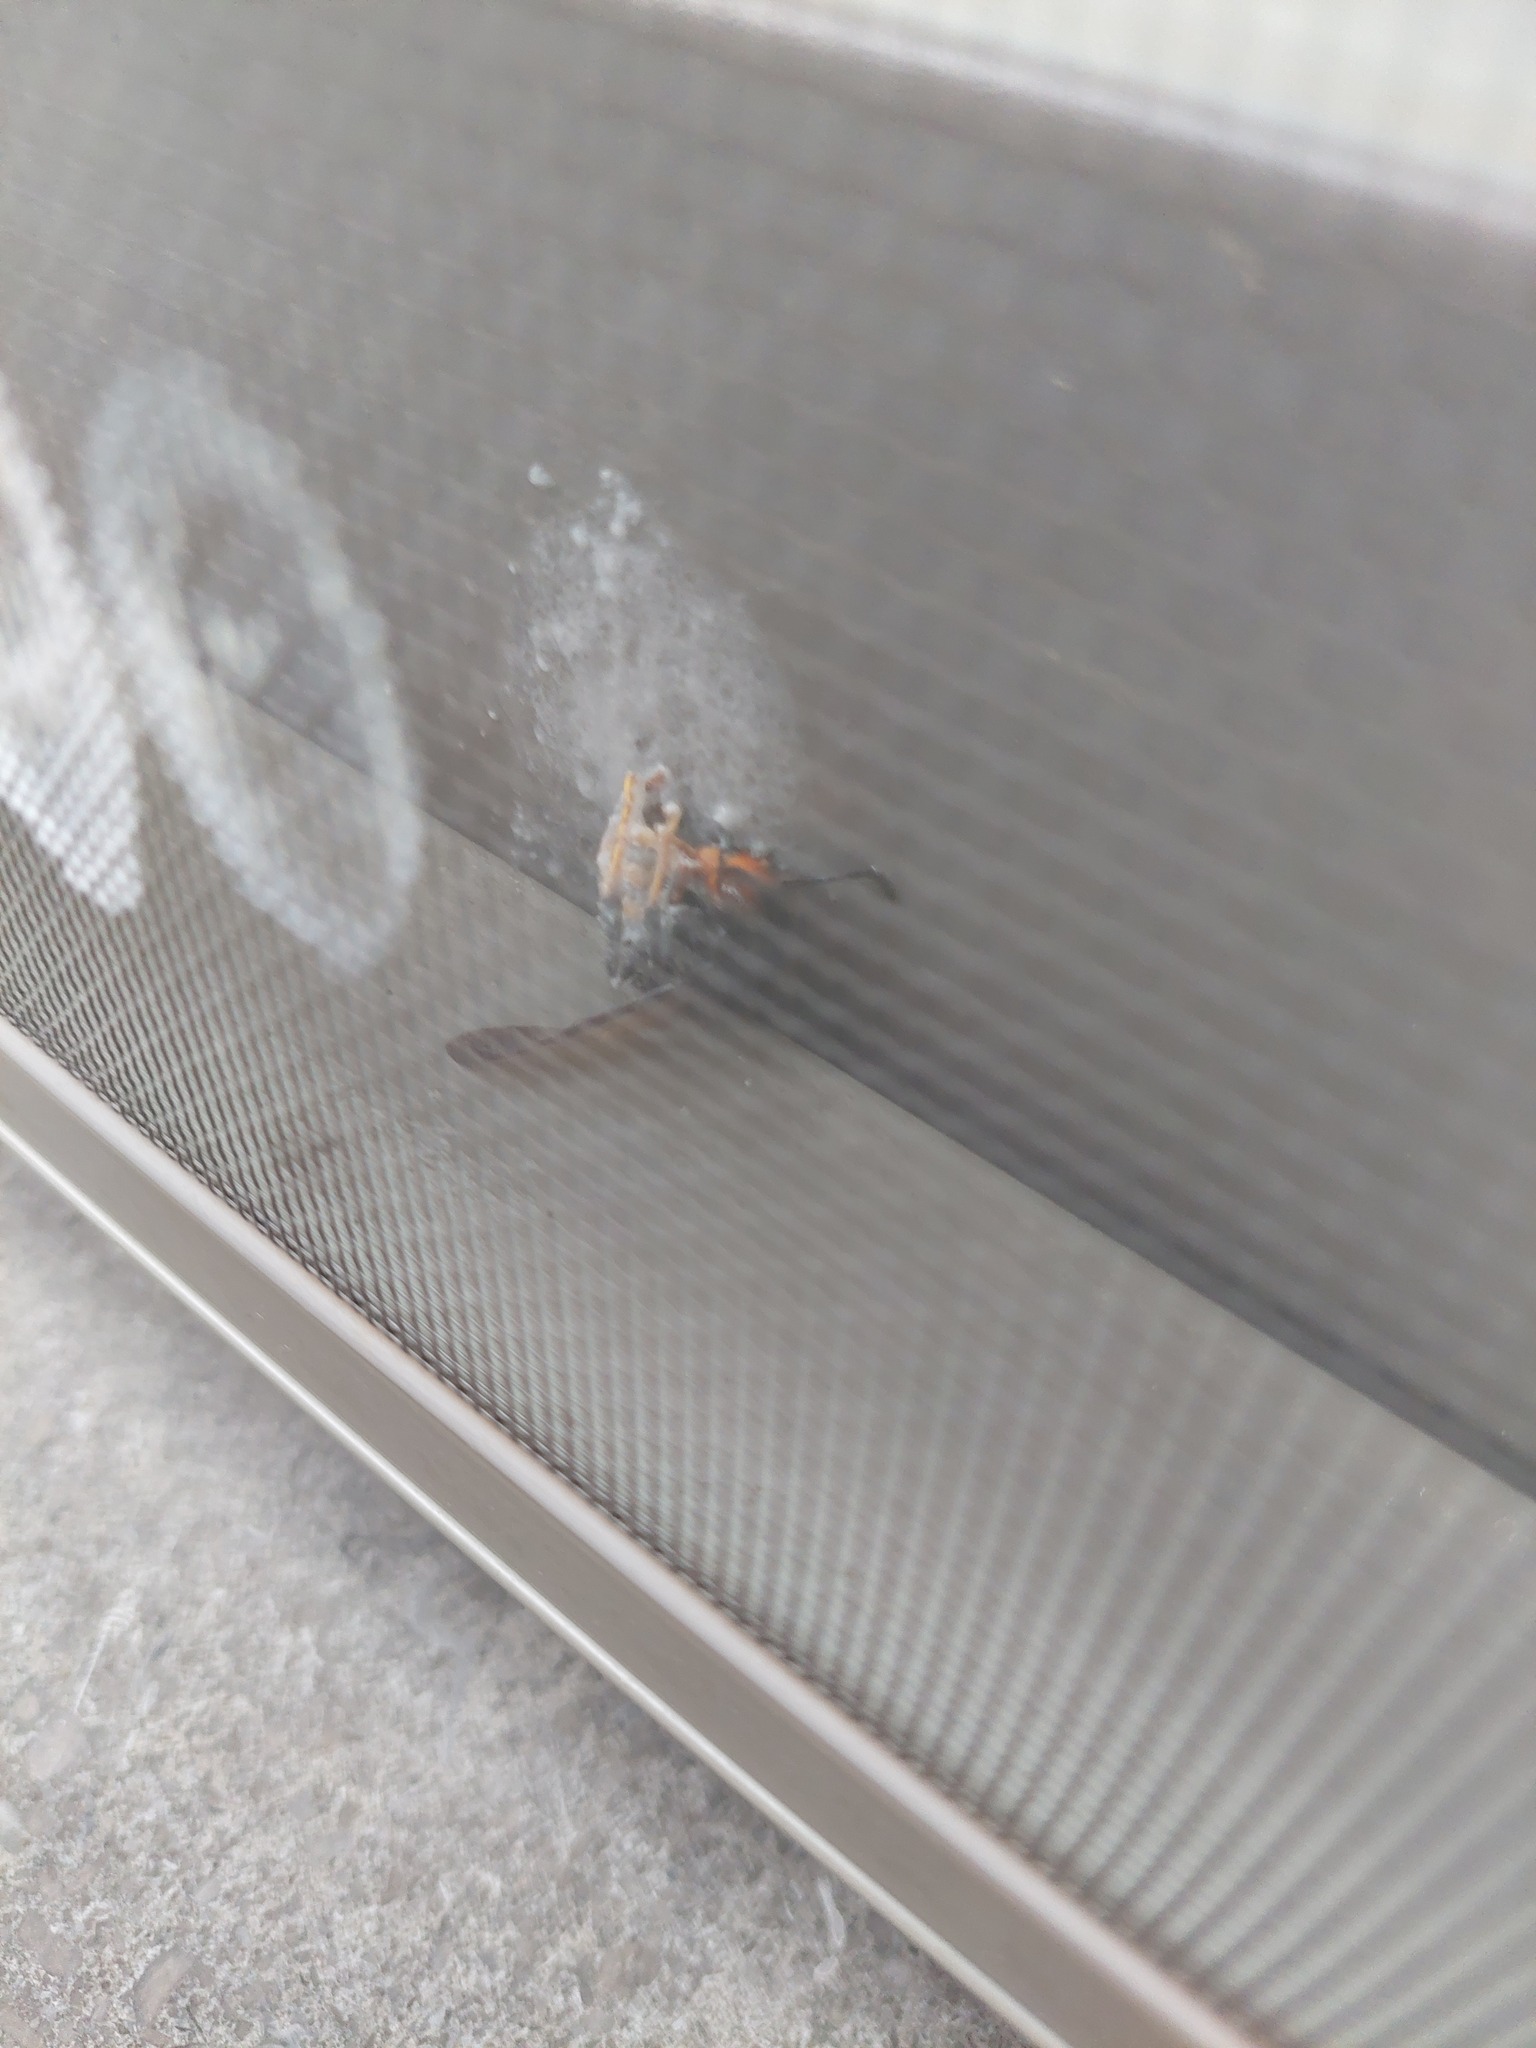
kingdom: Animalia
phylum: Arthropoda
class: Insecta
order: Hymenoptera
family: Vespidae
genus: Vespa
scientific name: Vespa velutina
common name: Asian hornet
